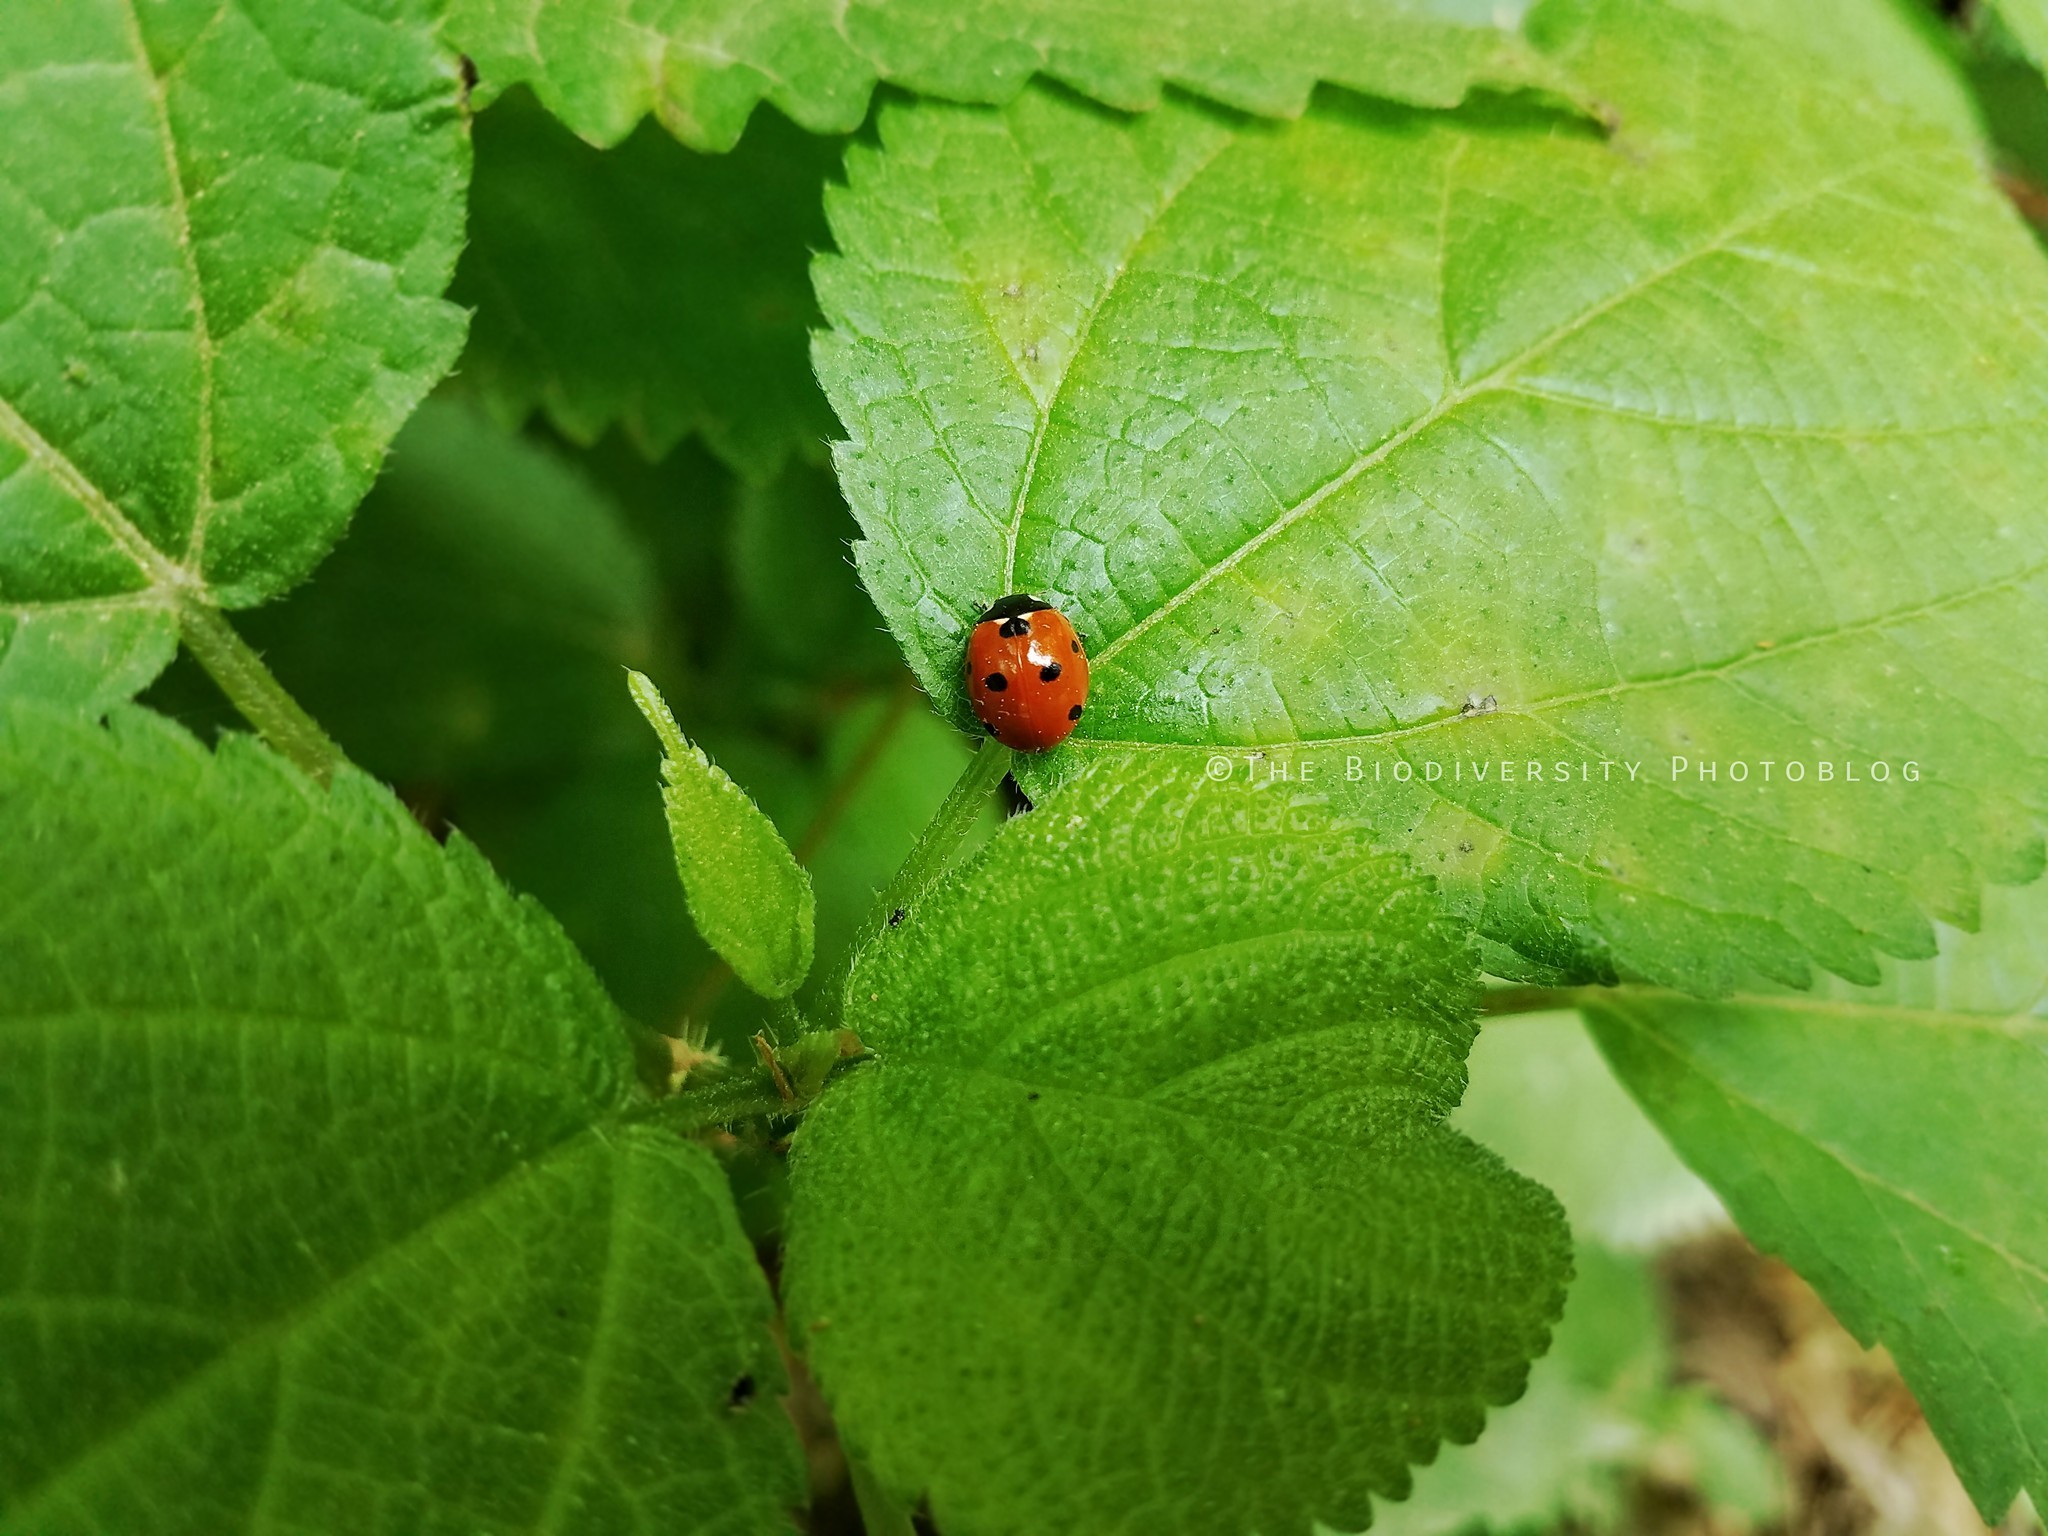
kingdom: Animalia
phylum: Arthropoda
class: Insecta
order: Coleoptera
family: Coccinellidae
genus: Coccinella
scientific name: Coccinella septempunctata
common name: Sevenspotted lady beetle
